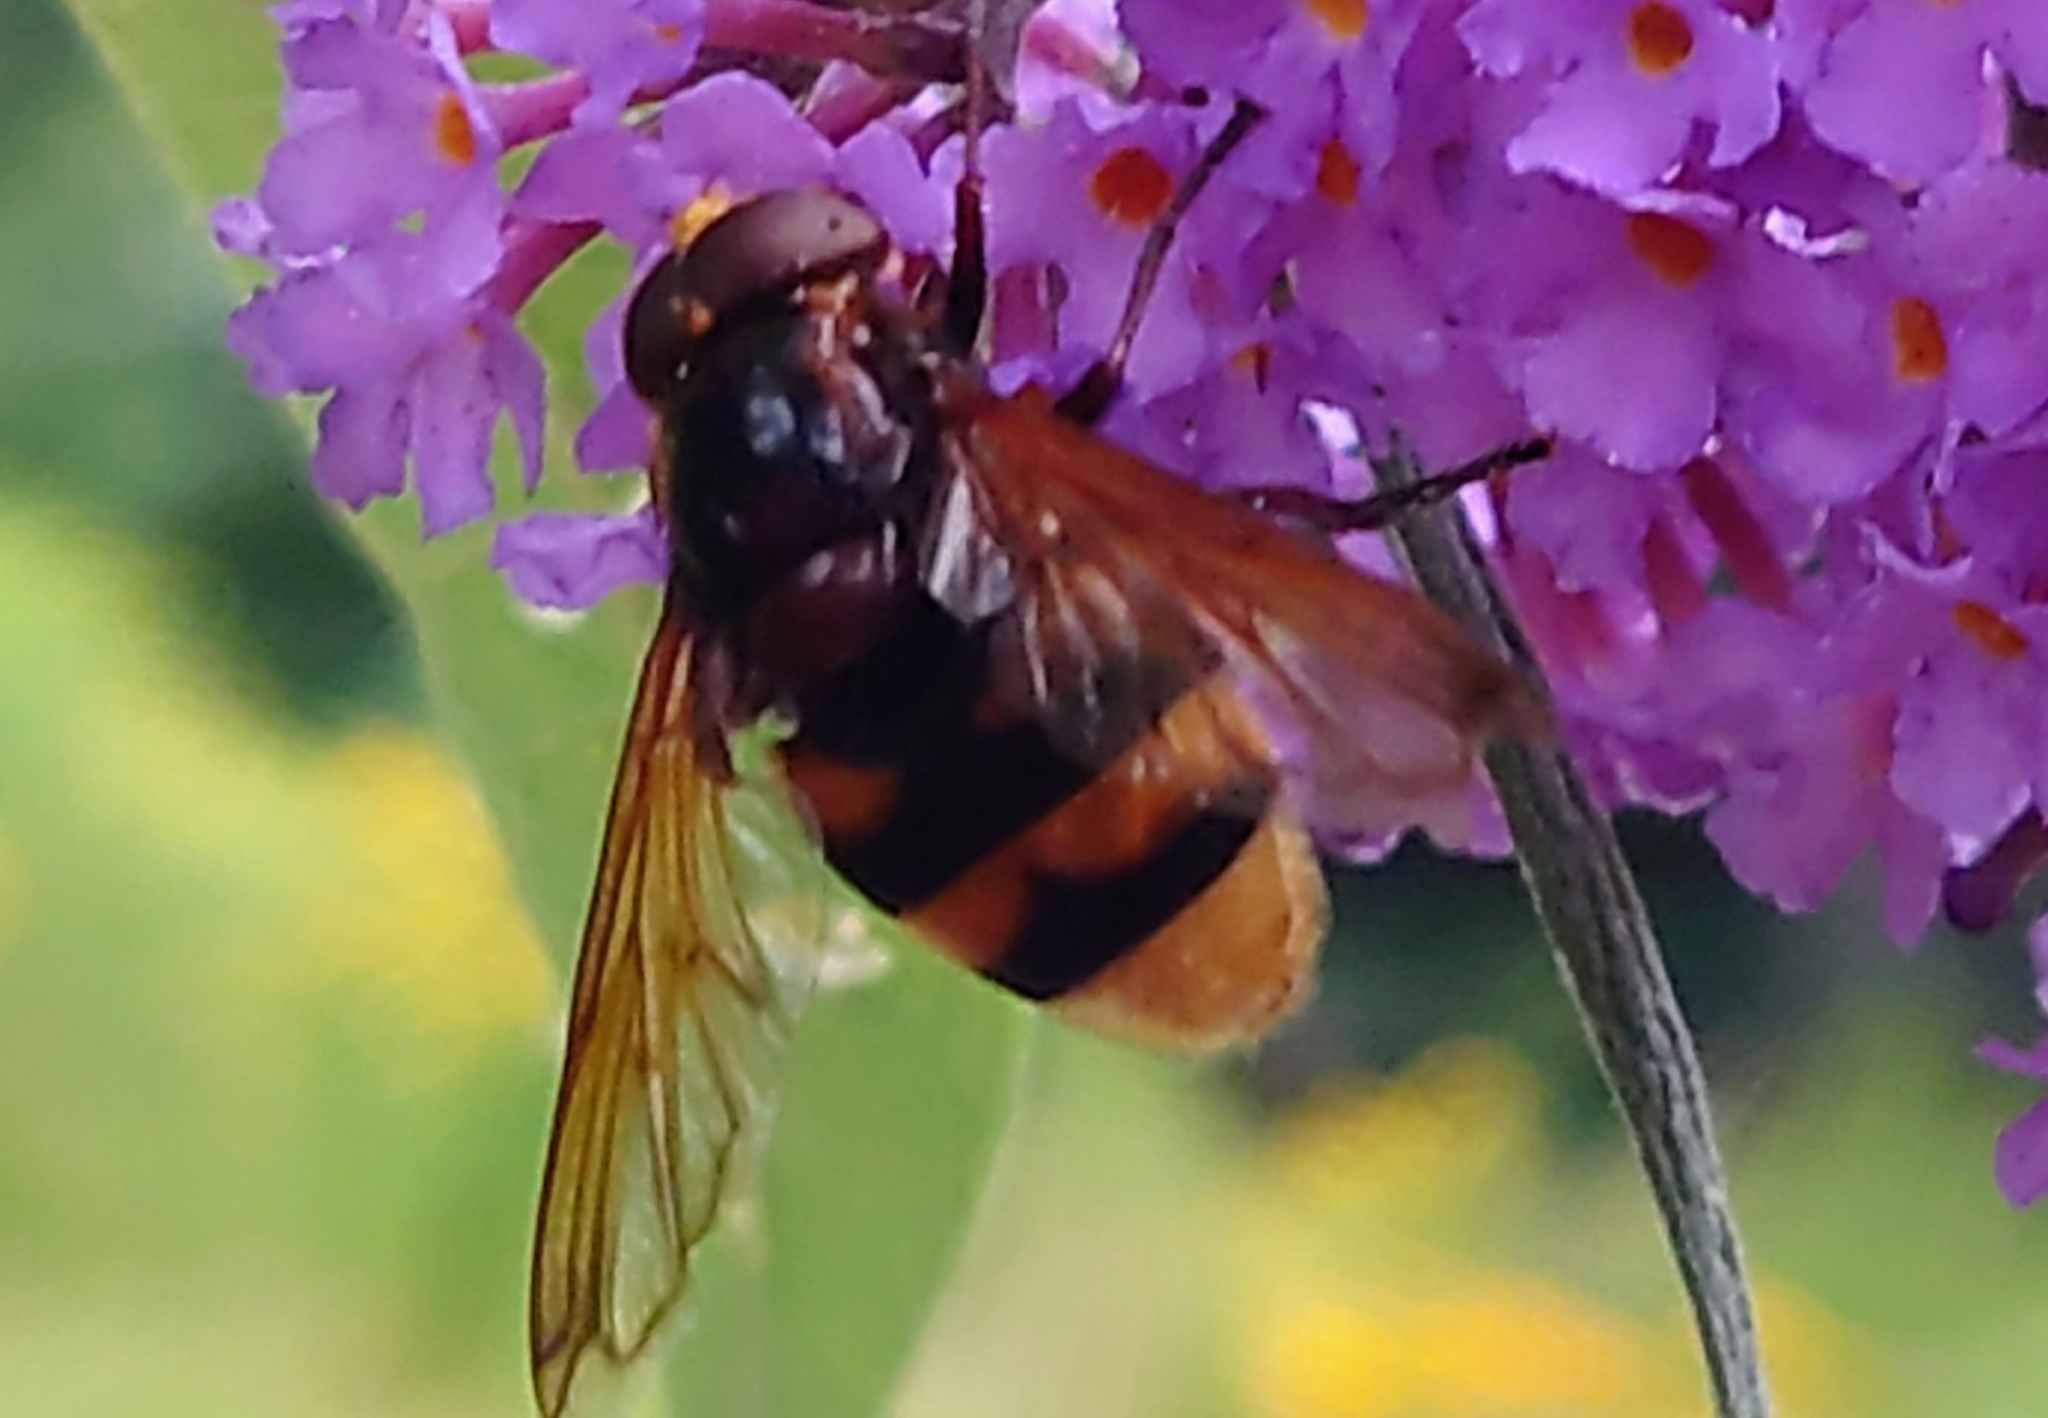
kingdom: Animalia
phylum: Arthropoda
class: Insecta
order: Diptera
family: Syrphidae
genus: Volucella
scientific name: Volucella zonaria
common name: Hornet hoverfly
